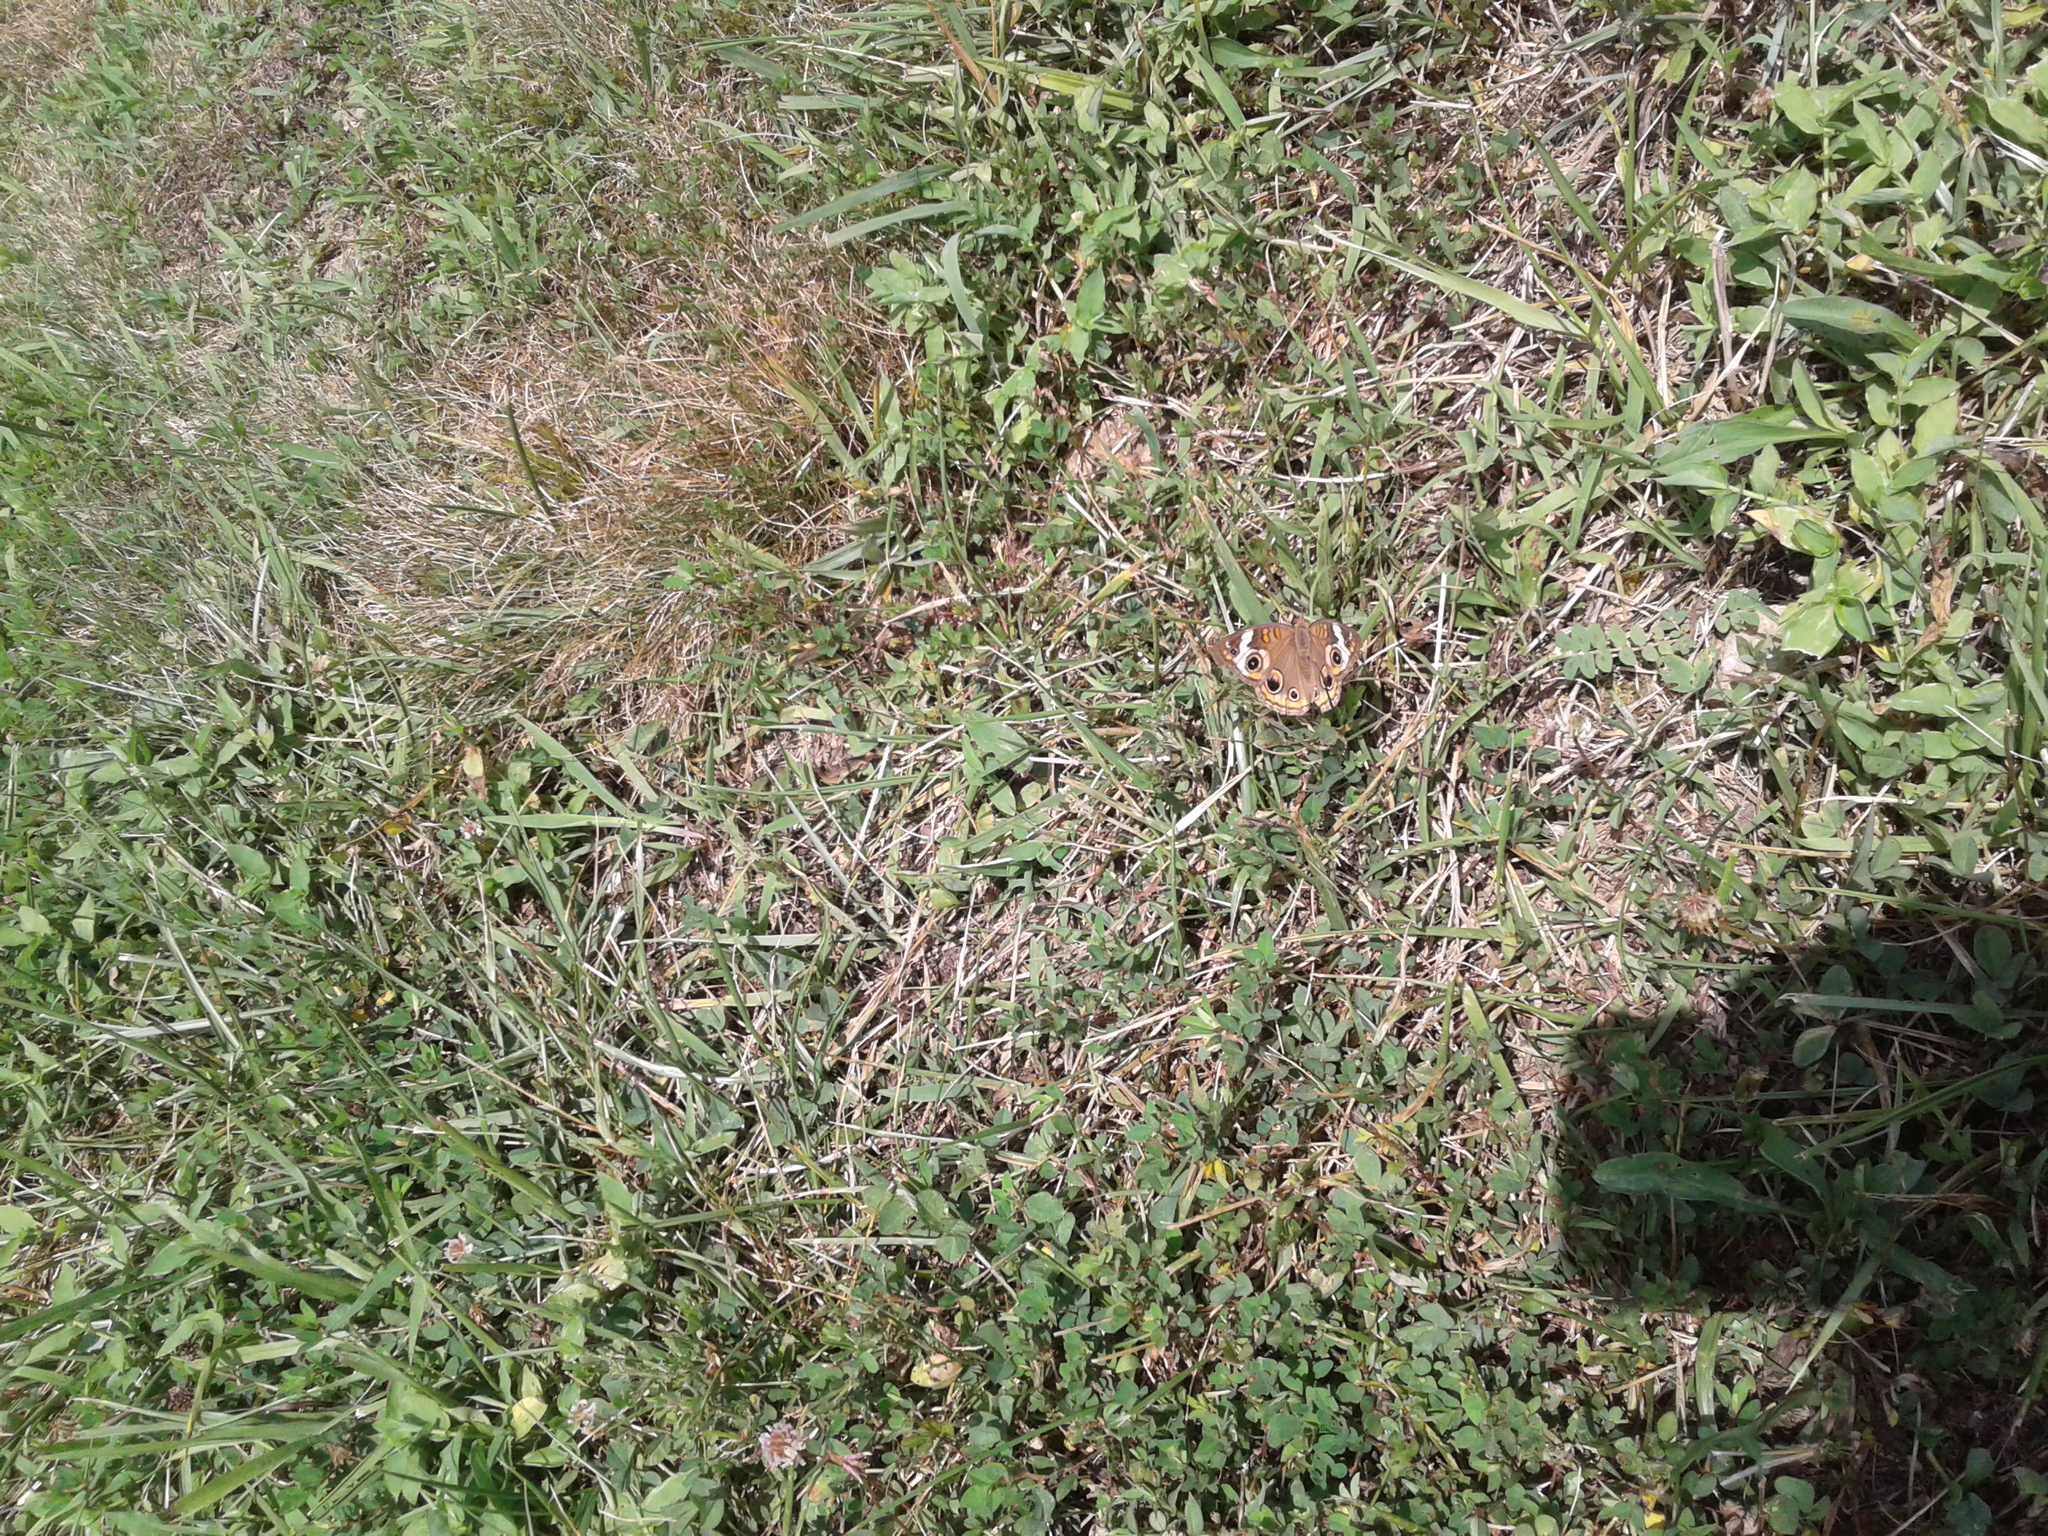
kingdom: Animalia
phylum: Arthropoda
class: Insecta
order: Lepidoptera
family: Nymphalidae
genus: Junonia
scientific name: Junonia coenia
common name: Common buckeye
